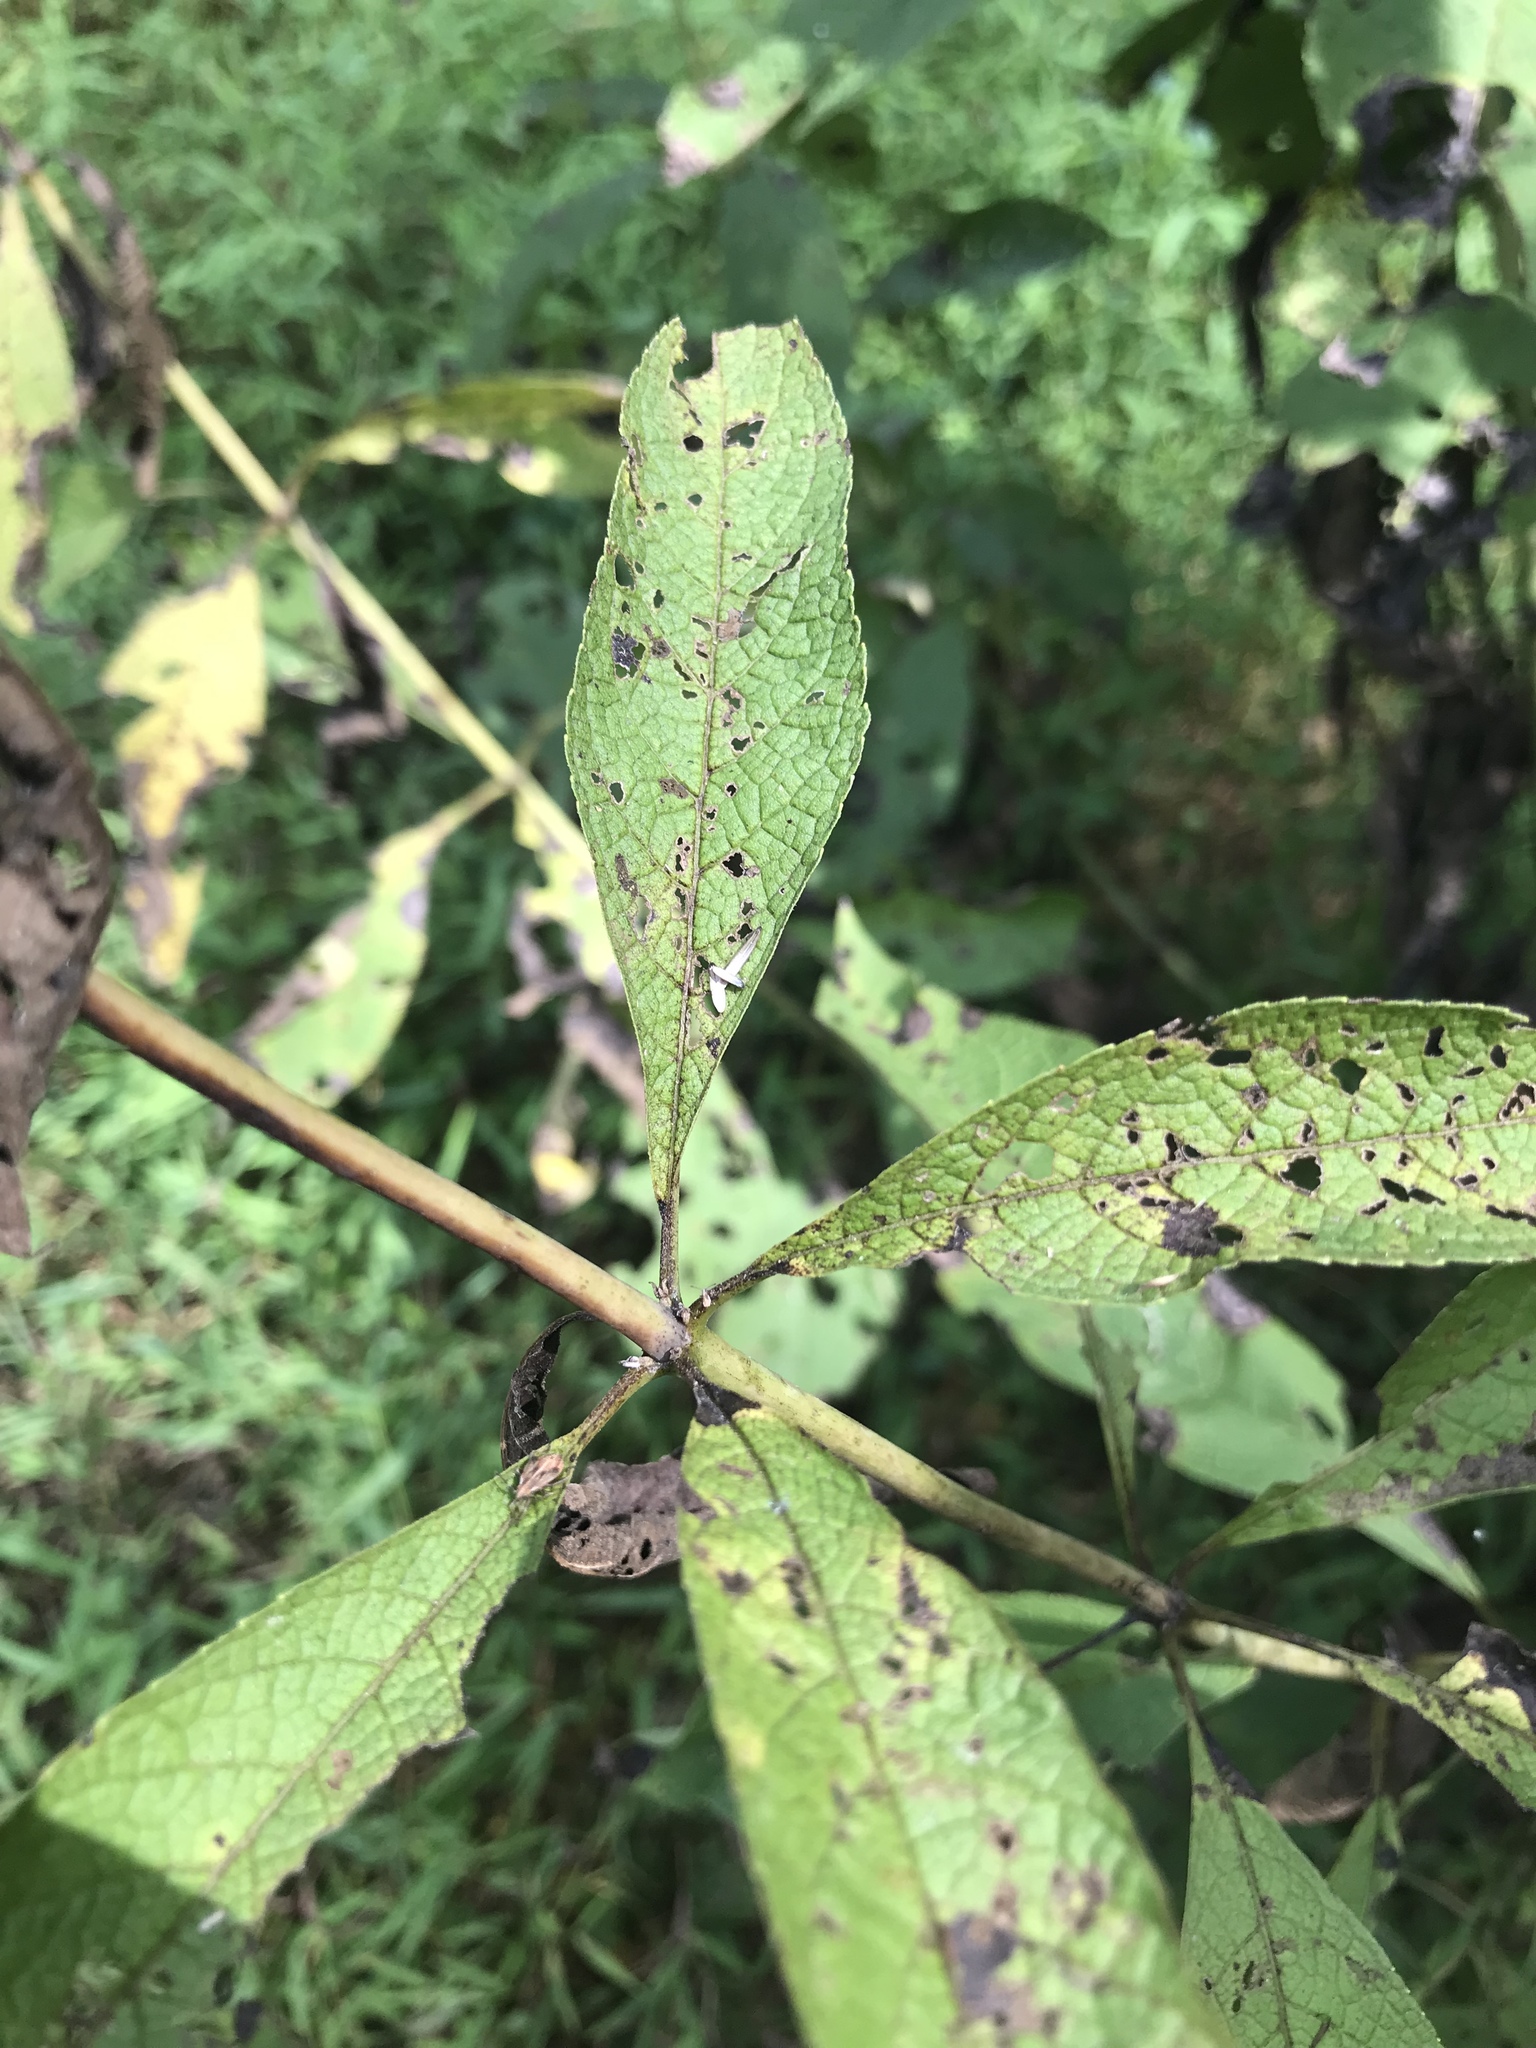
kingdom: Plantae
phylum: Tracheophyta
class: Magnoliopsida
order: Asterales
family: Asteraceae
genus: Eutrochium
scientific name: Eutrochium fistulosum
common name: Trumpetweed
